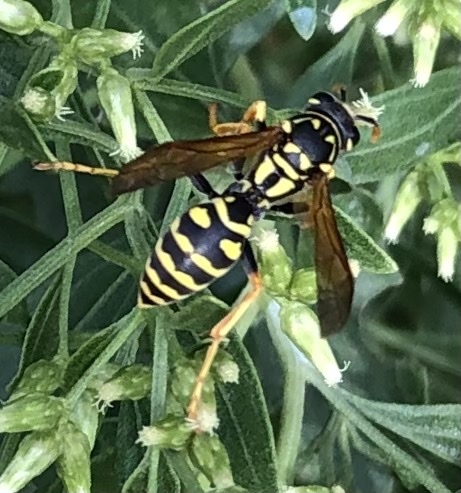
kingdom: Animalia
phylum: Arthropoda
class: Insecta
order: Hymenoptera
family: Eumenidae
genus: Polistes
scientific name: Polistes dominula
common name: Paper wasp
